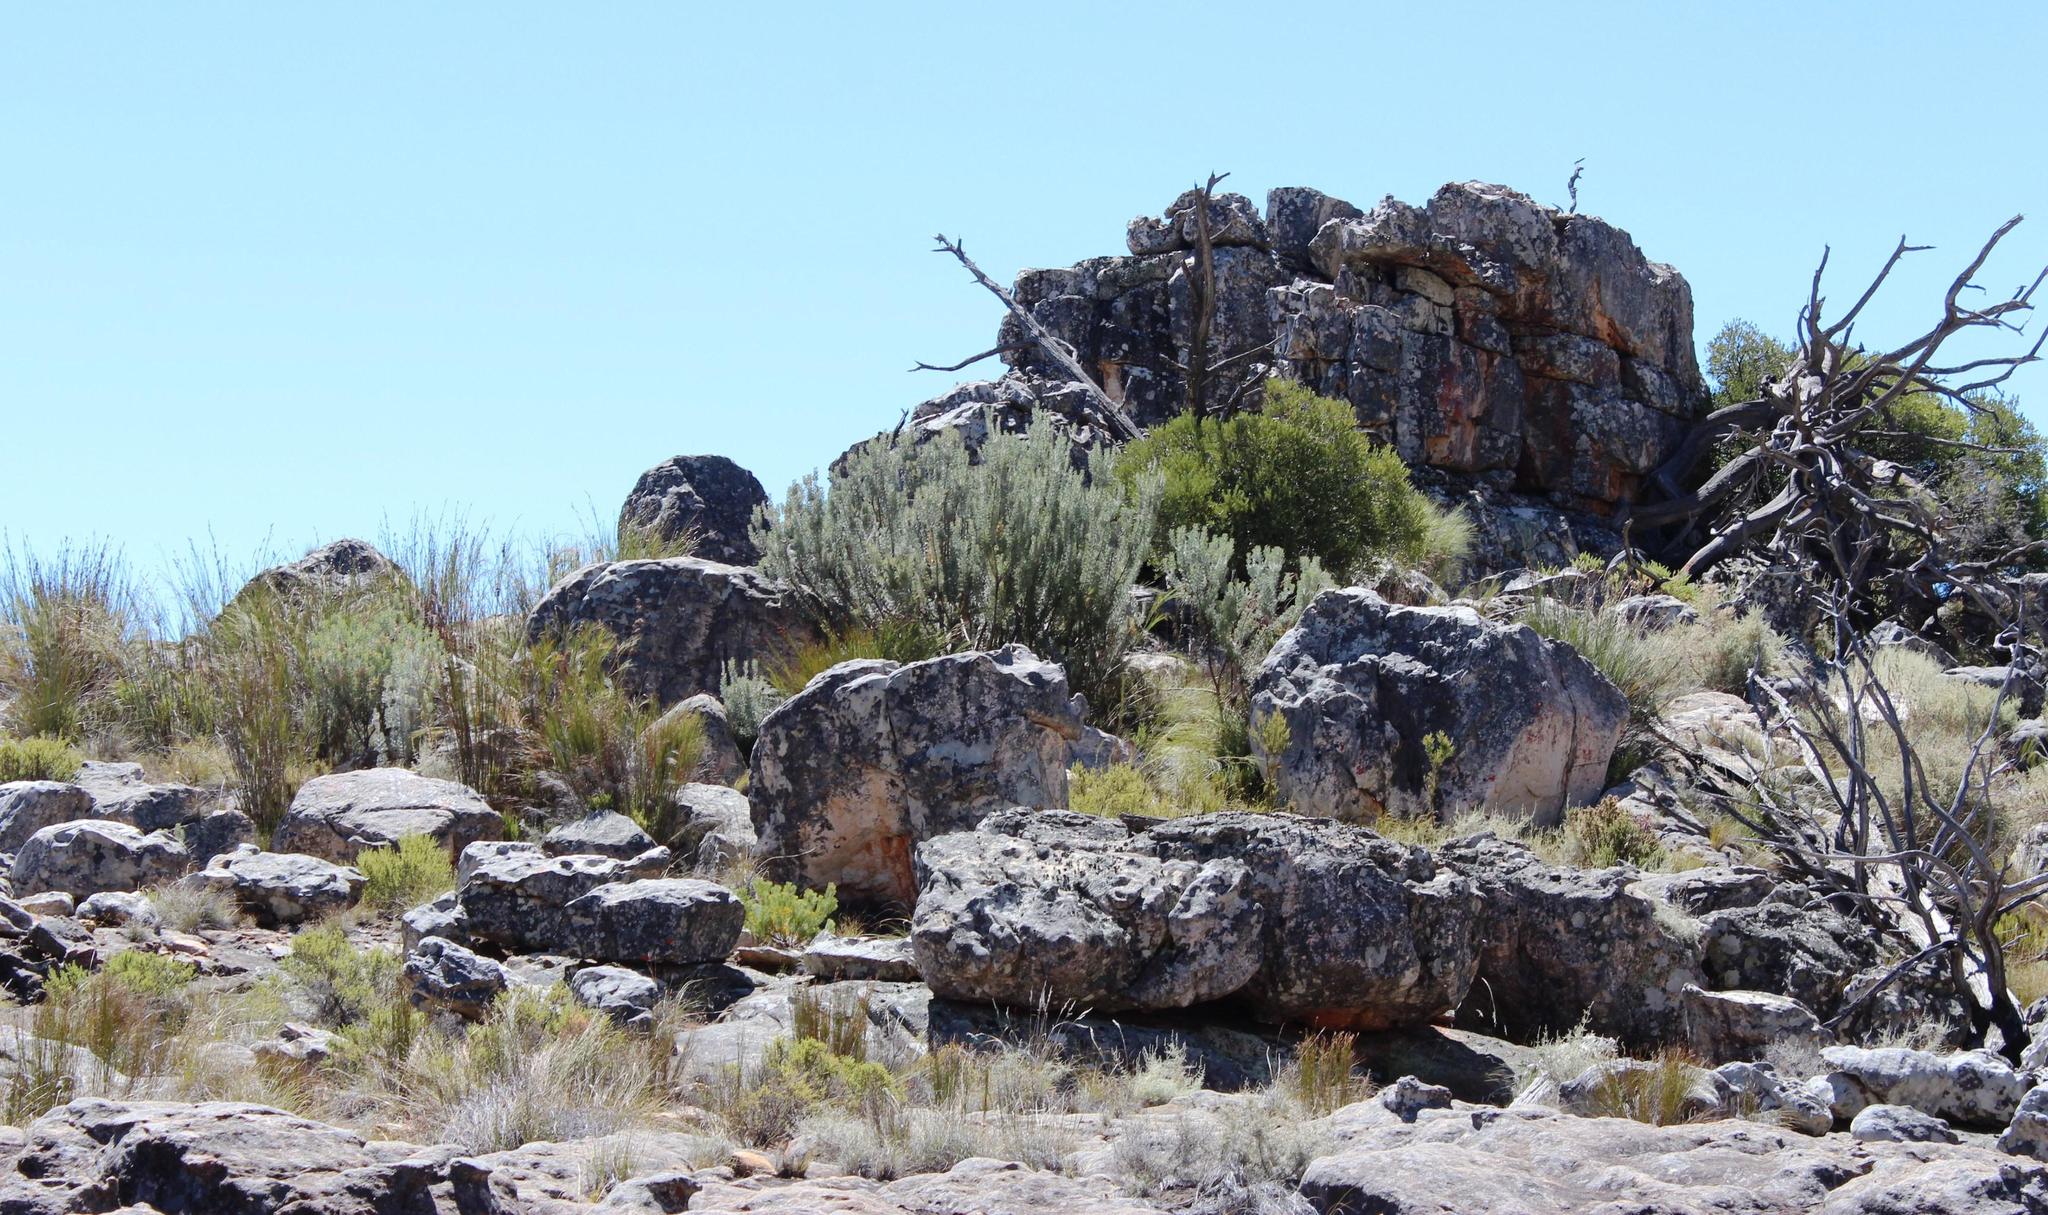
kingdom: Plantae
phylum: Tracheophyta
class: Magnoliopsida
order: Proteales
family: Proteaceae
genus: Paranomus
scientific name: Paranomus tomentosus
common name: Hairy-leaf tree sceptre
